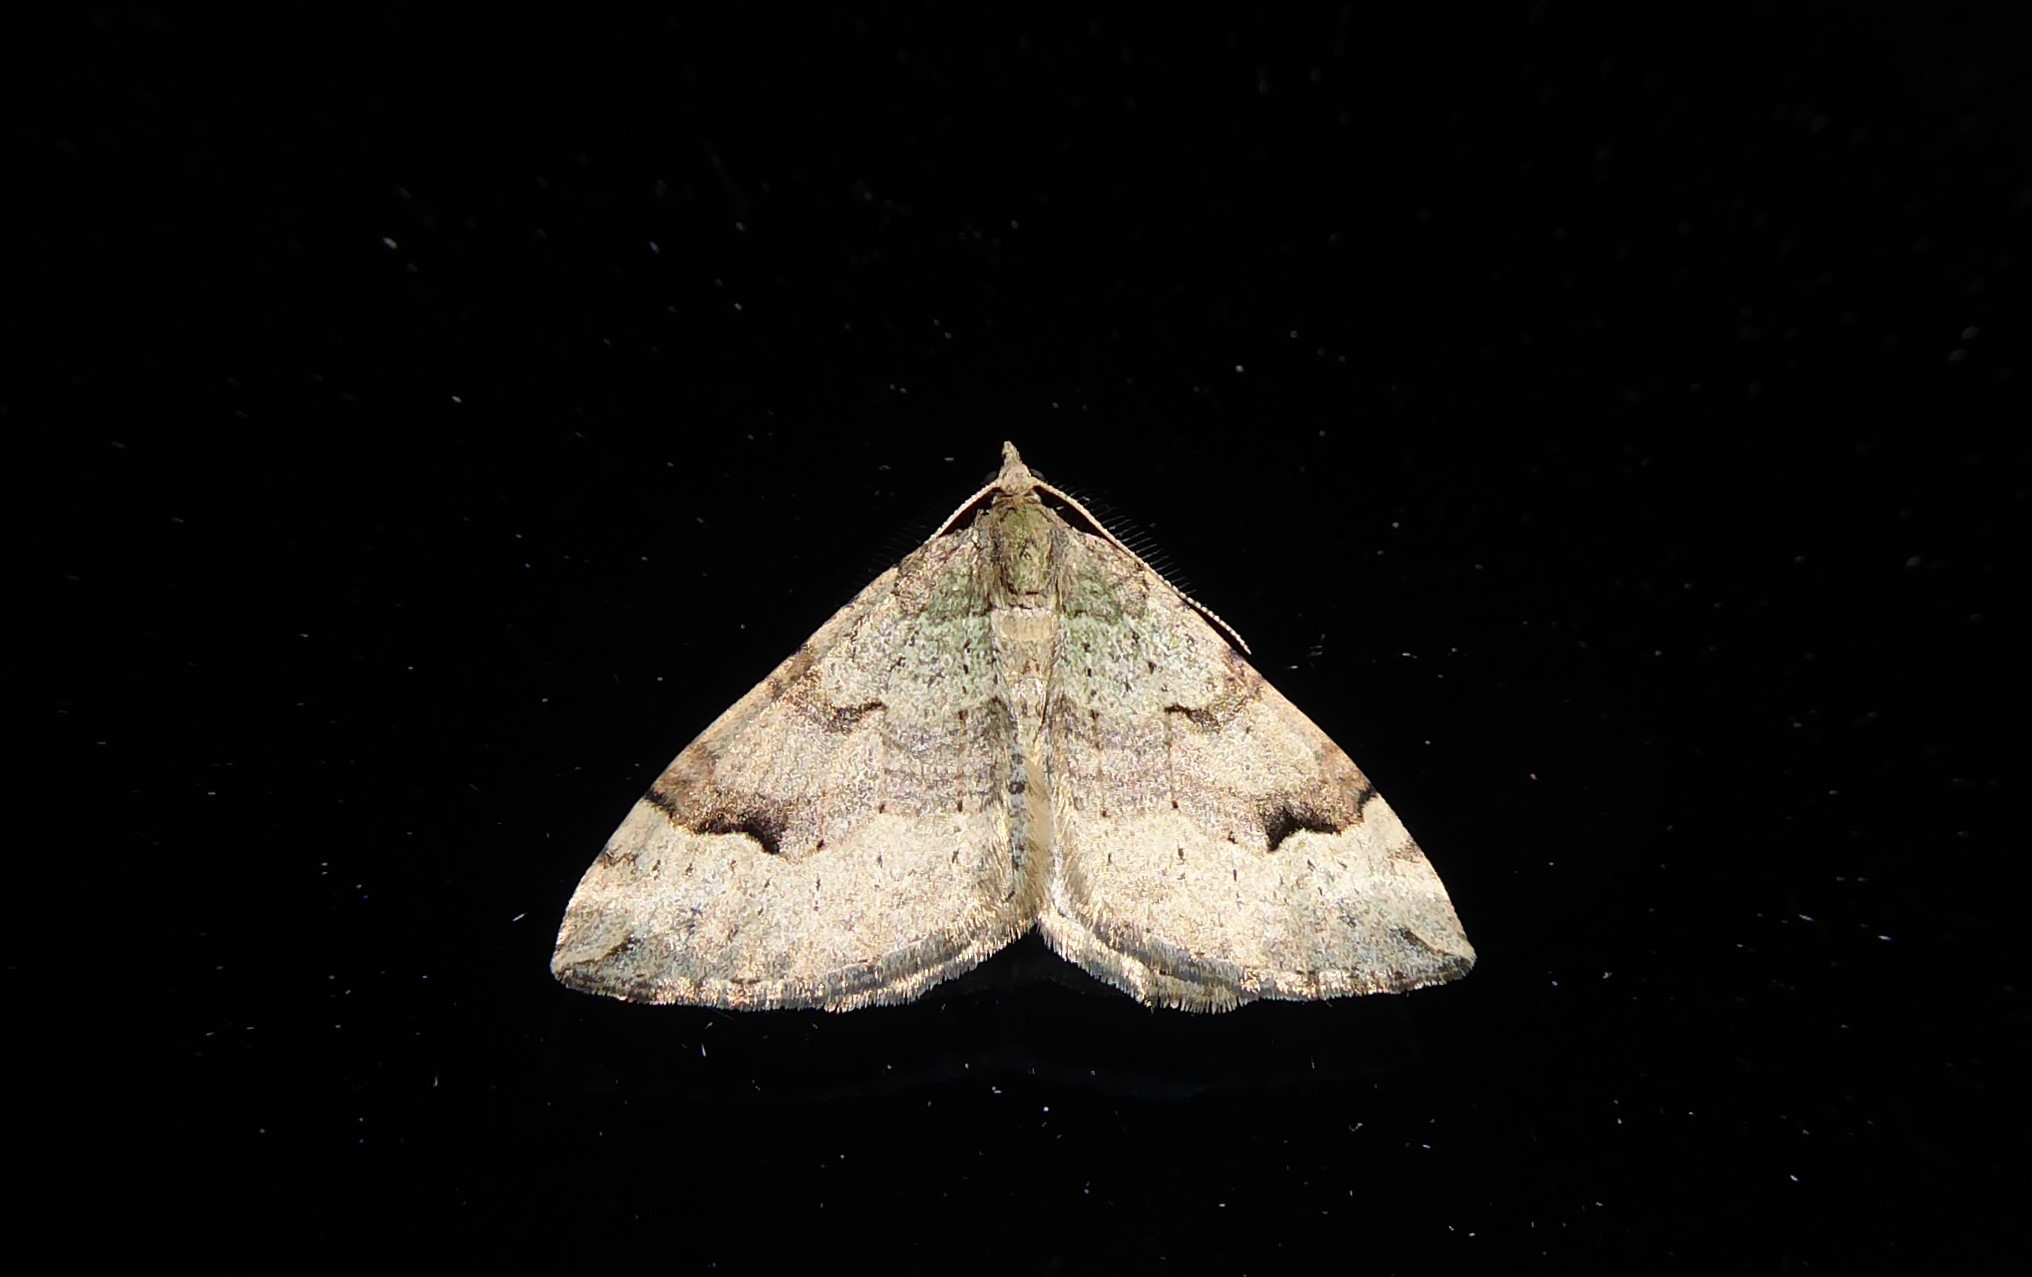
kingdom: Animalia
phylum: Arthropoda
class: Insecta
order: Lepidoptera
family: Geometridae
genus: Epyaxa
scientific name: Epyaxa rosearia
